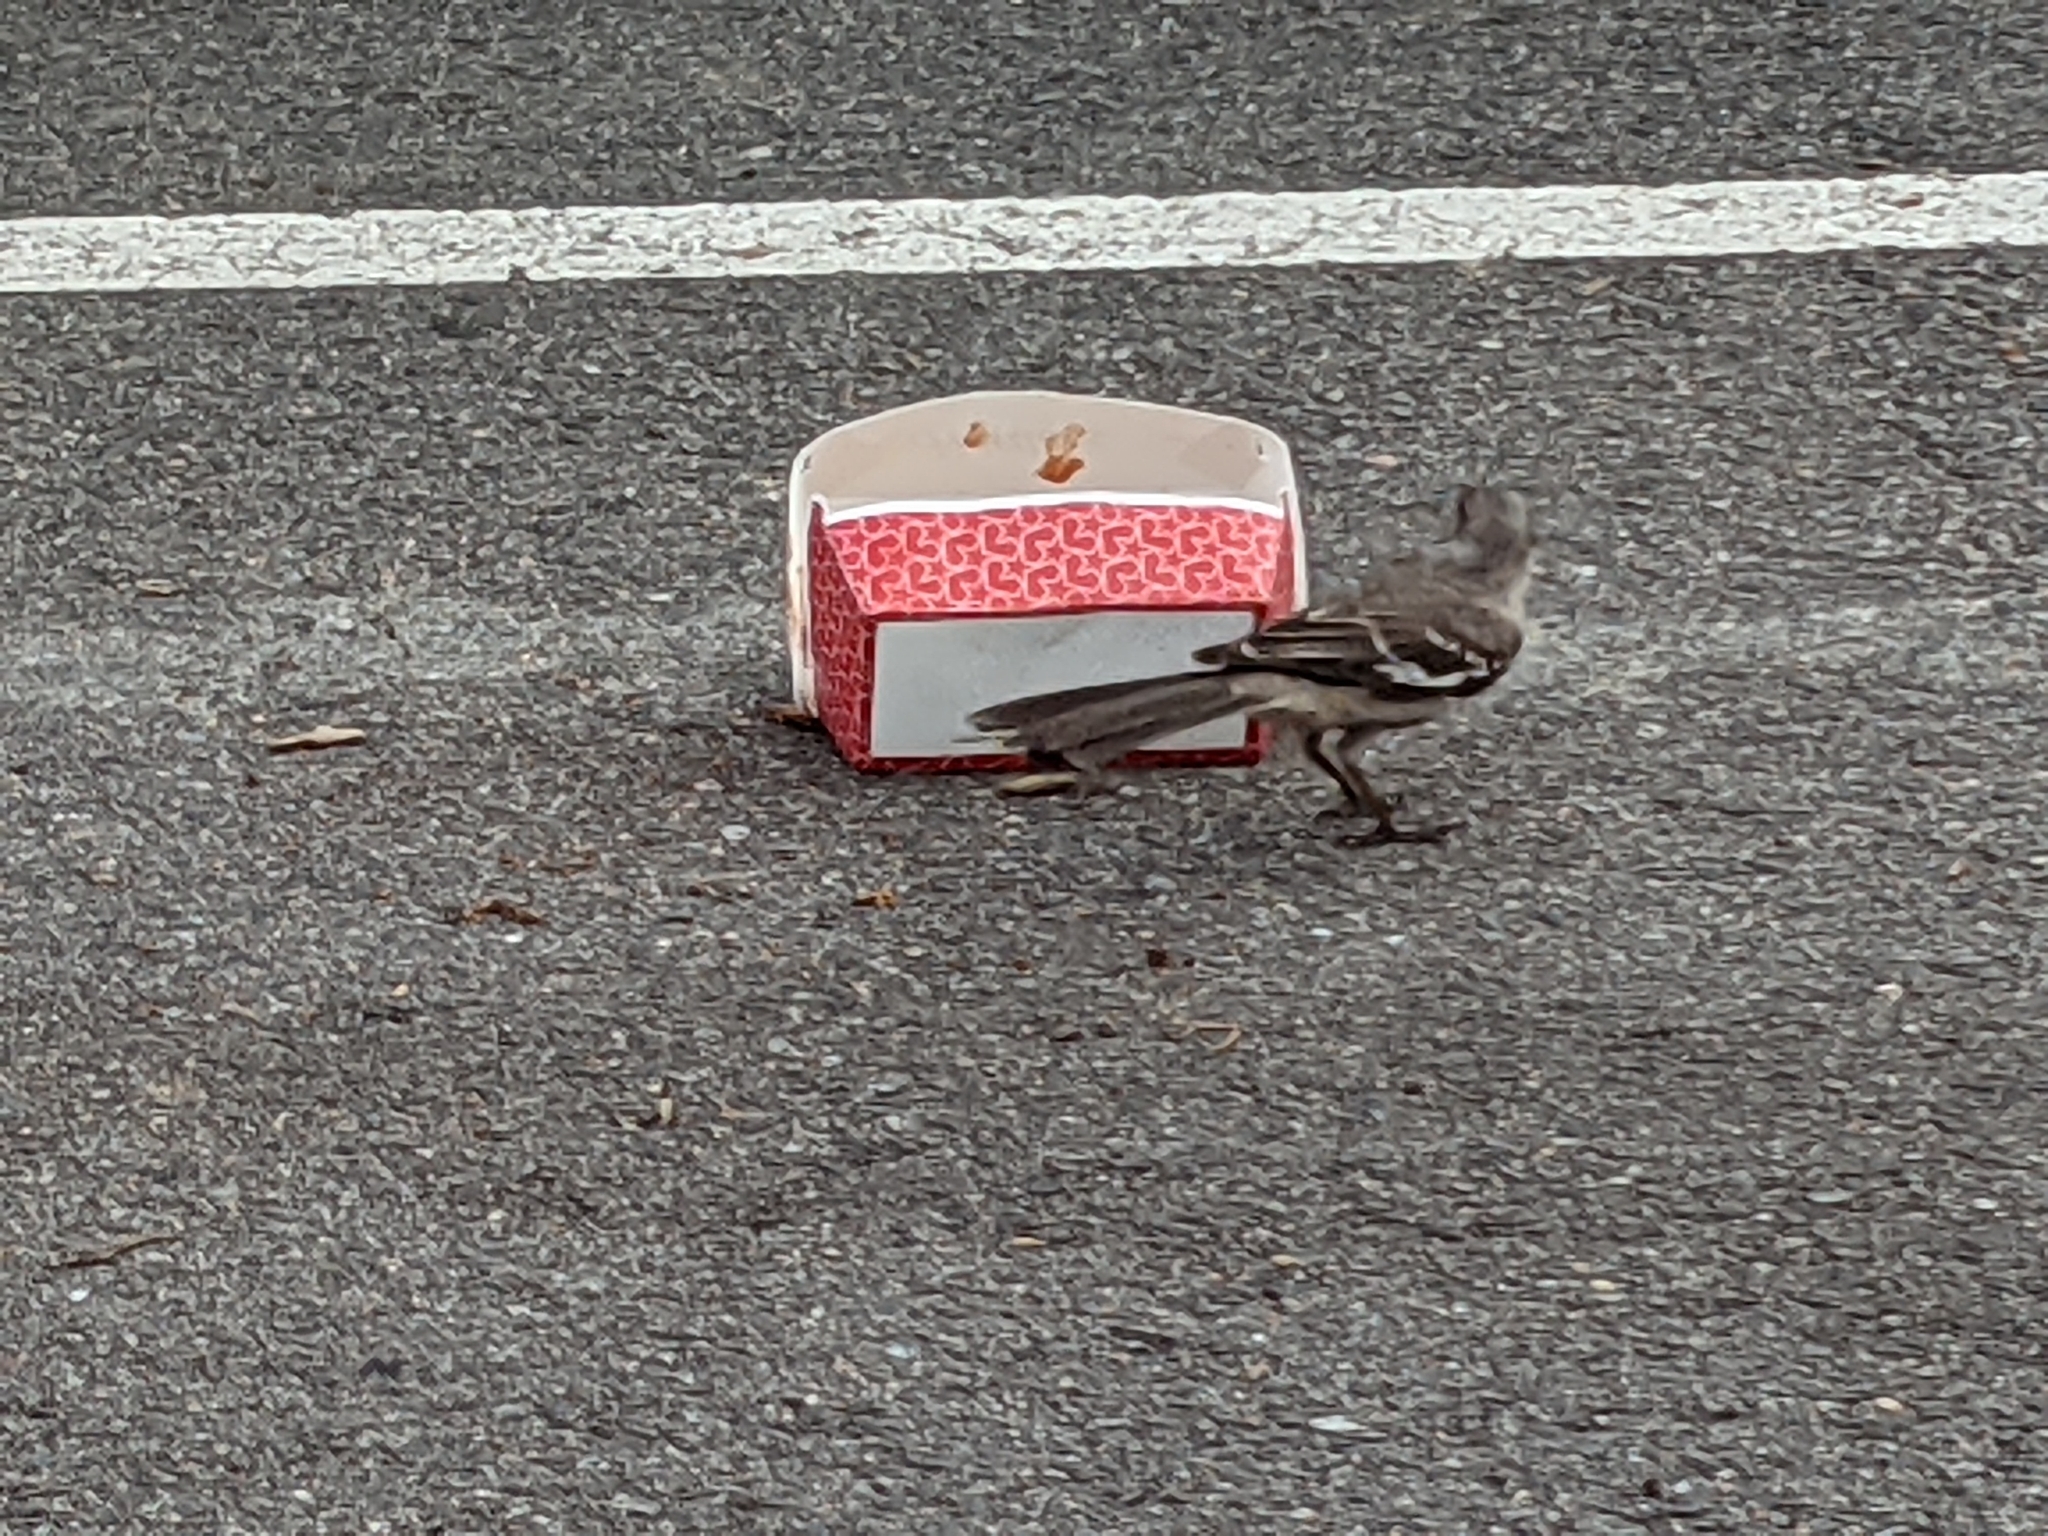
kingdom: Animalia
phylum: Chordata
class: Aves
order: Passeriformes
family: Mimidae
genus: Mimus
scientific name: Mimus polyglottos
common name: Northern mockingbird
